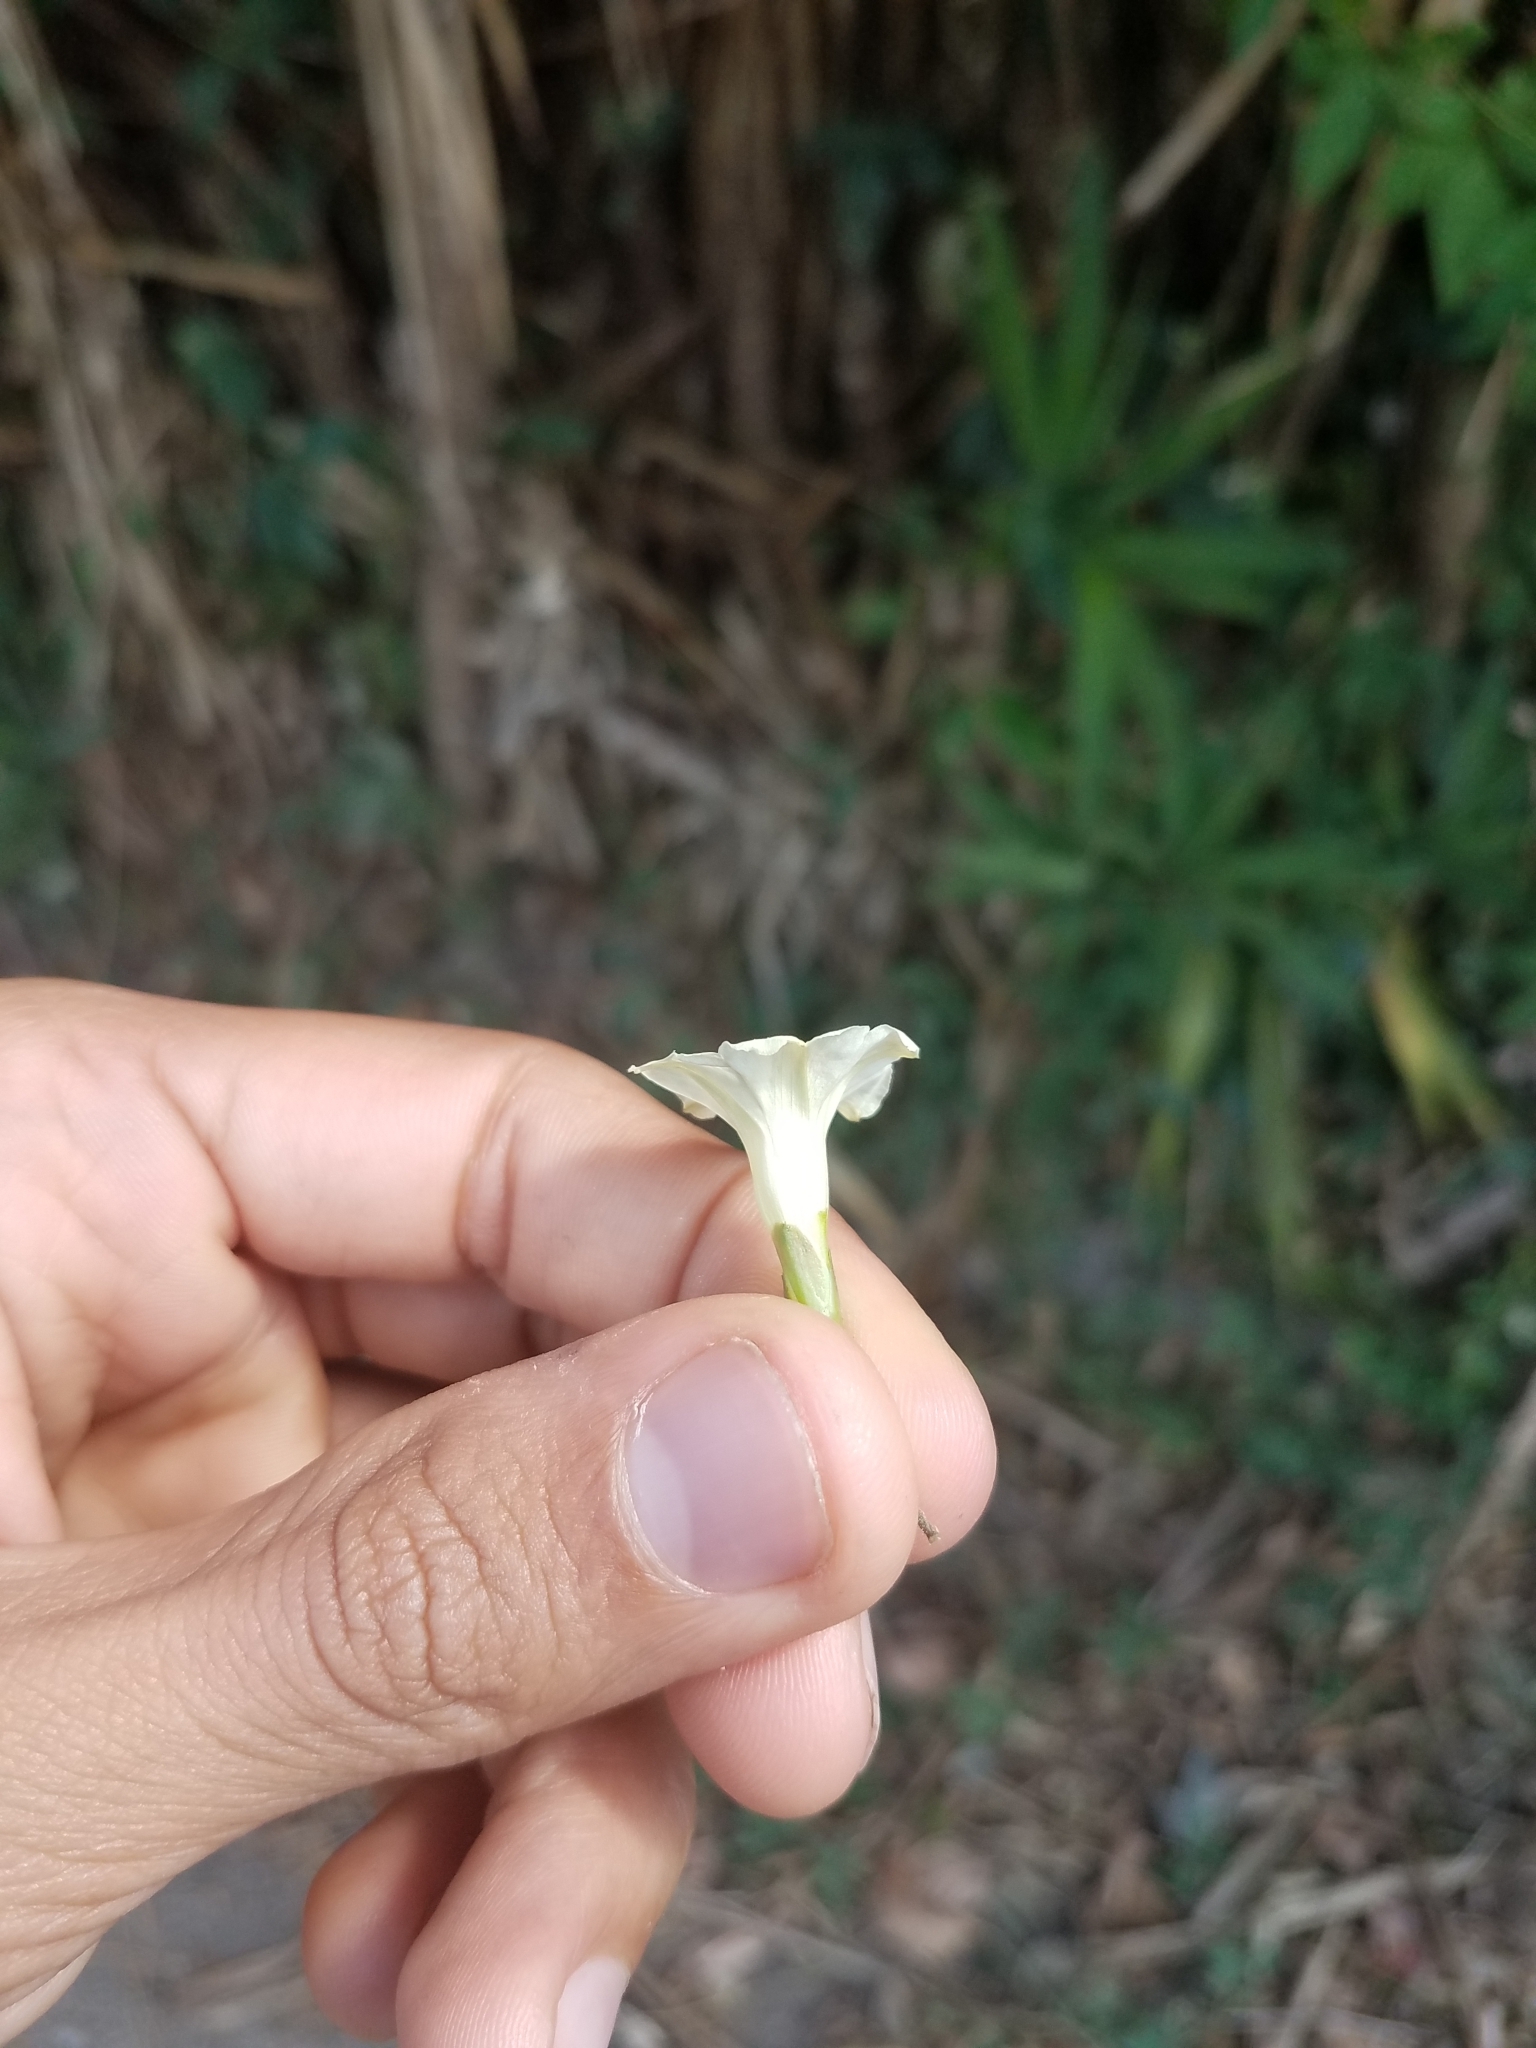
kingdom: Plantae
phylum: Tracheophyta
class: Magnoliopsida
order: Solanales
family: Convolvulaceae
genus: Distimake
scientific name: Distimake quinquefolius
